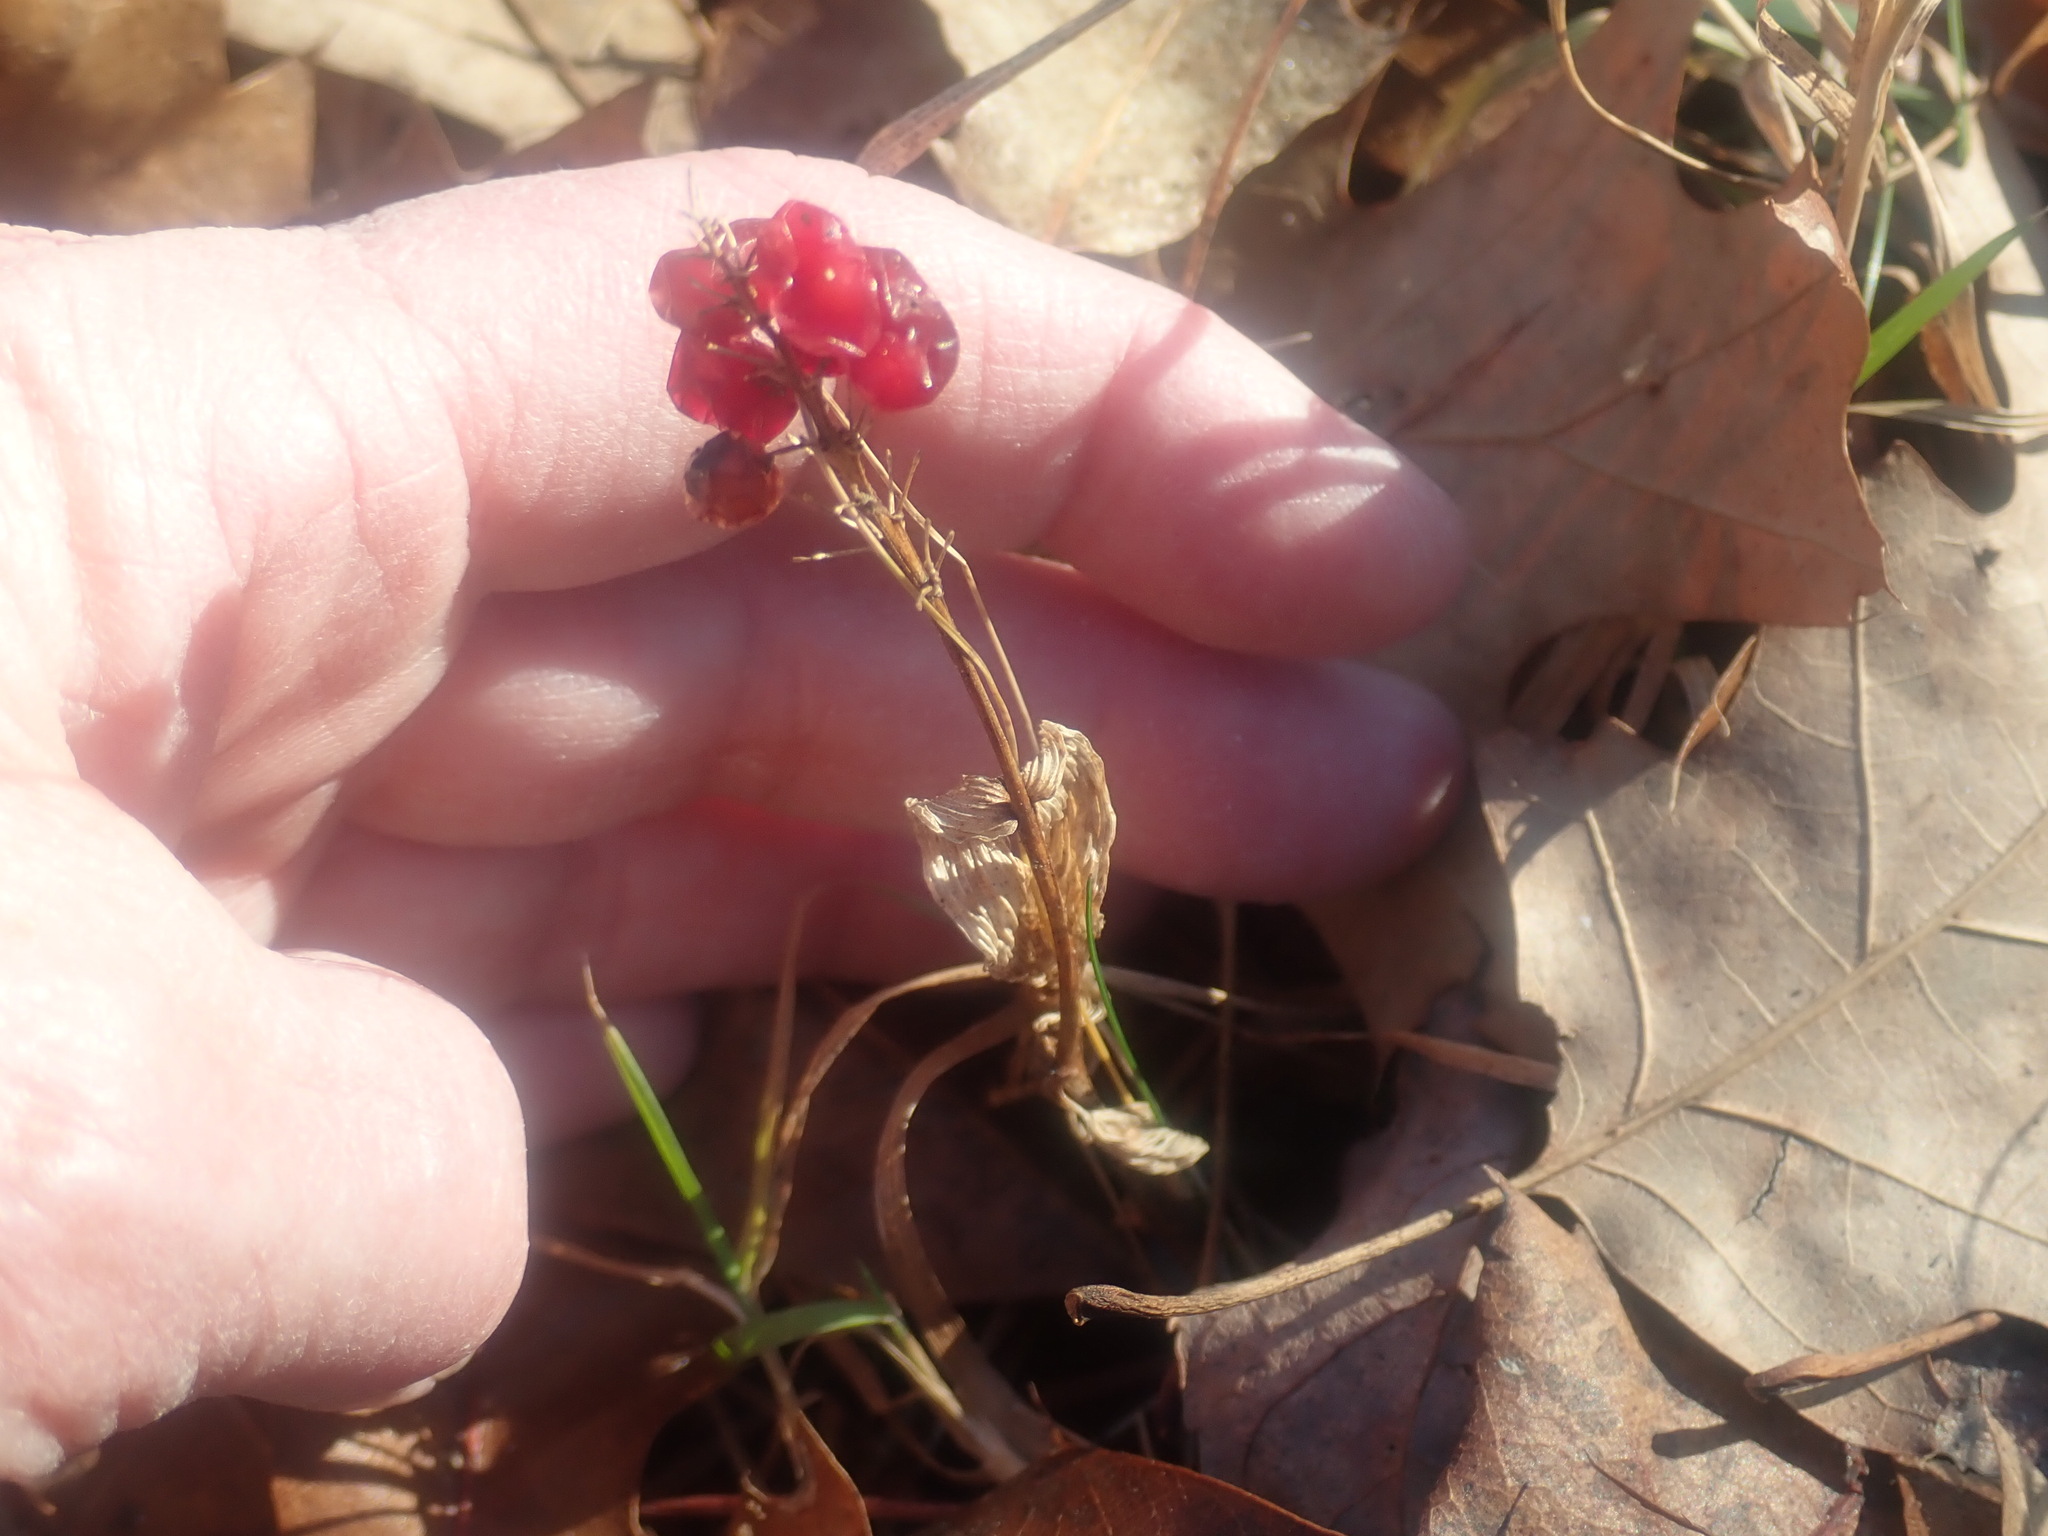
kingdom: Plantae
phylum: Tracheophyta
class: Liliopsida
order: Asparagales
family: Asparagaceae
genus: Maianthemum
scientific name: Maianthemum canadense
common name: False lily-of-the-valley
